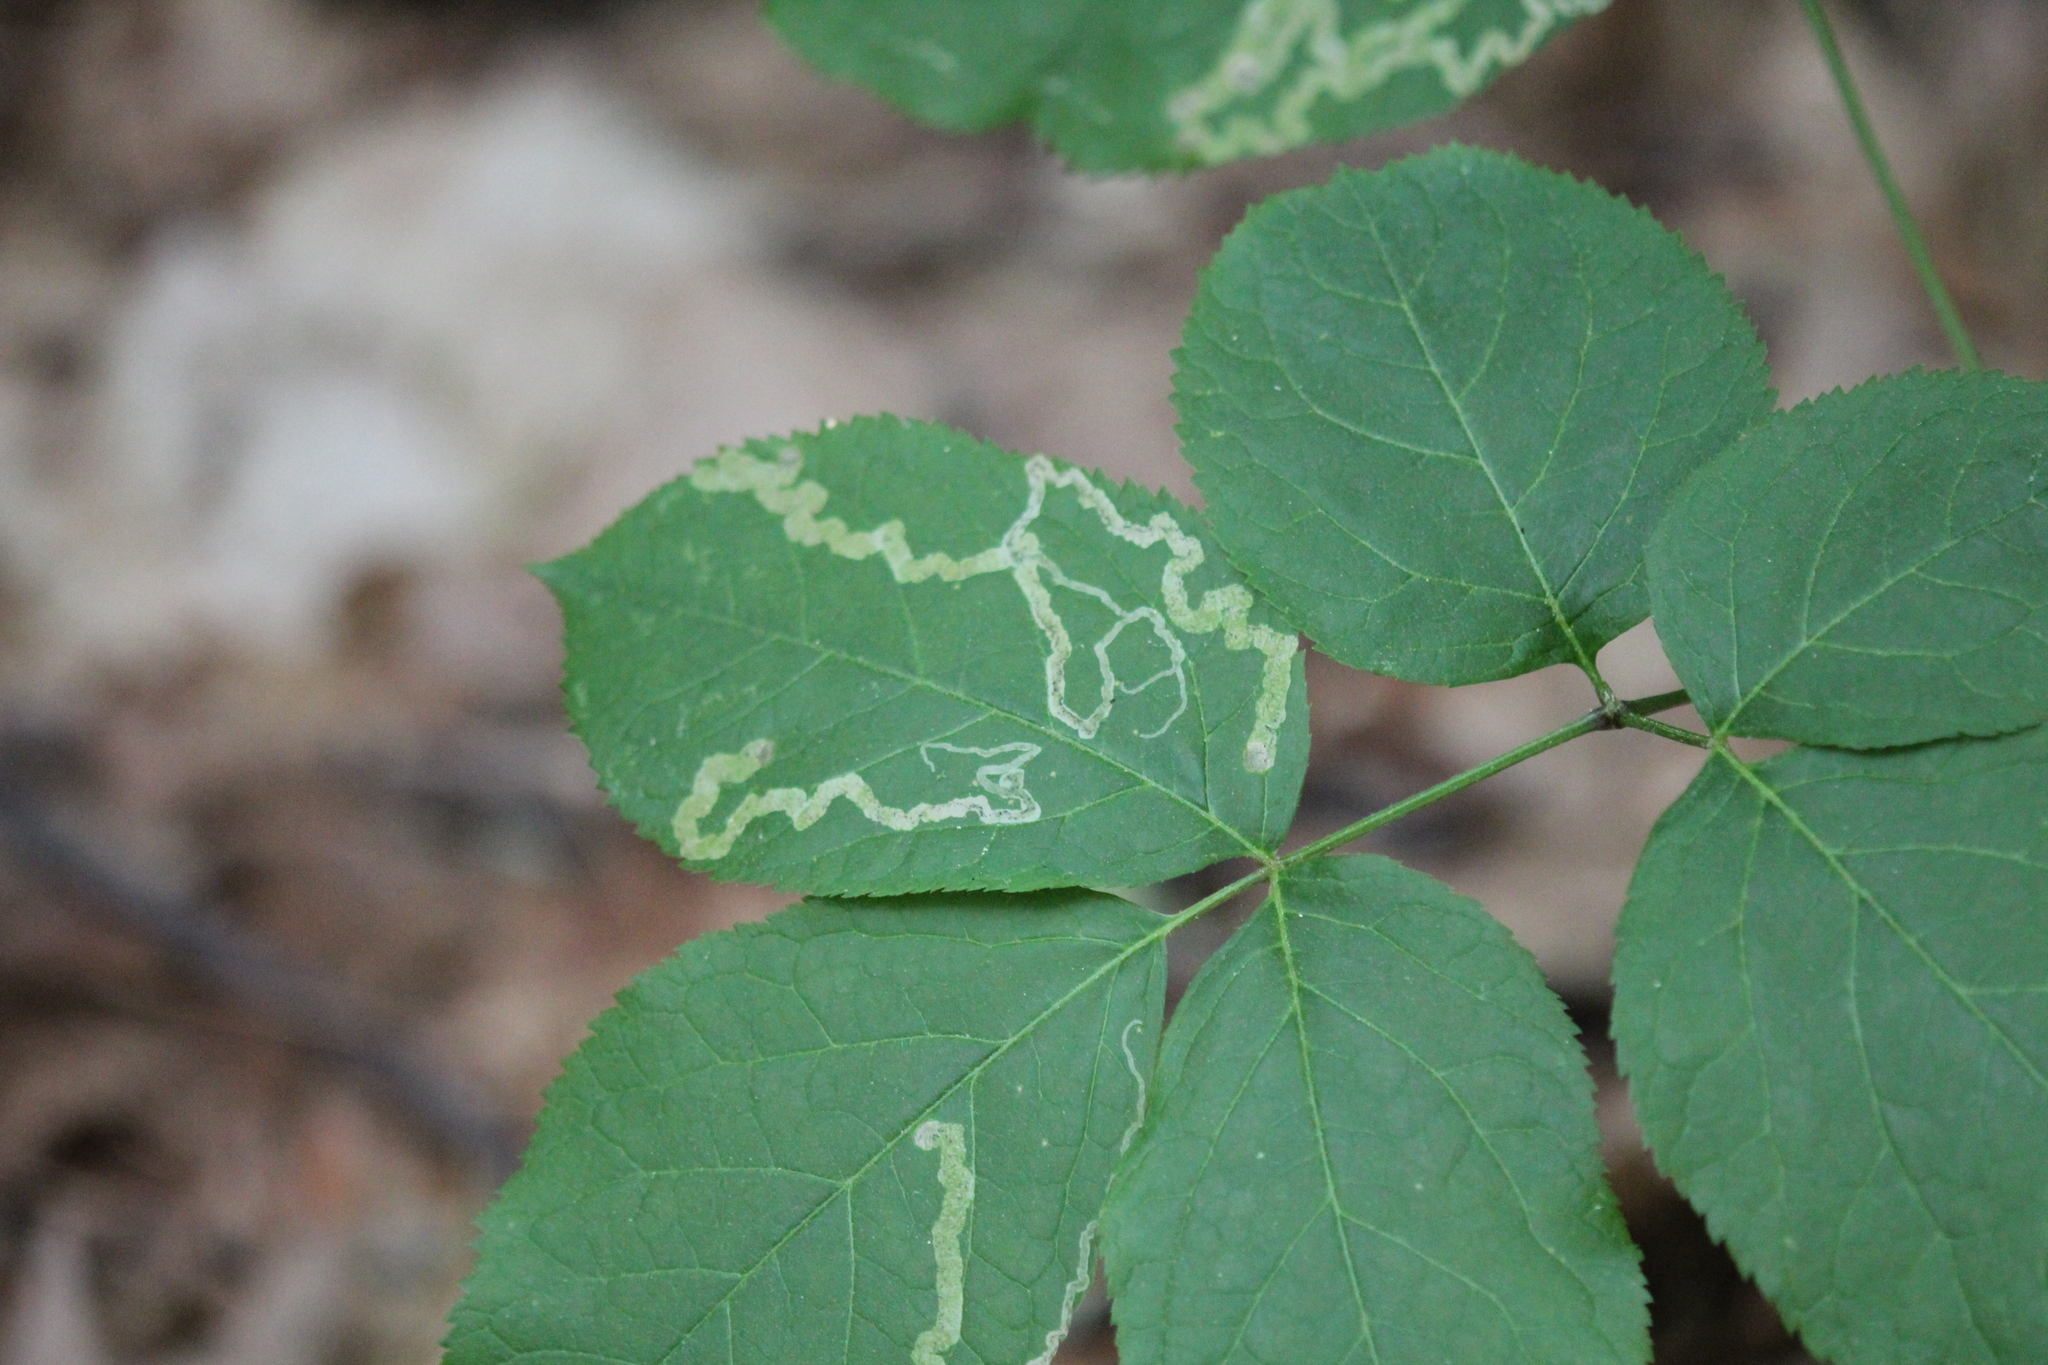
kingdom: Animalia
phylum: Arthropoda
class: Insecta
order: Diptera
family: Agromyzidae
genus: Phytomyza
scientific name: Phytomyza aralivora
